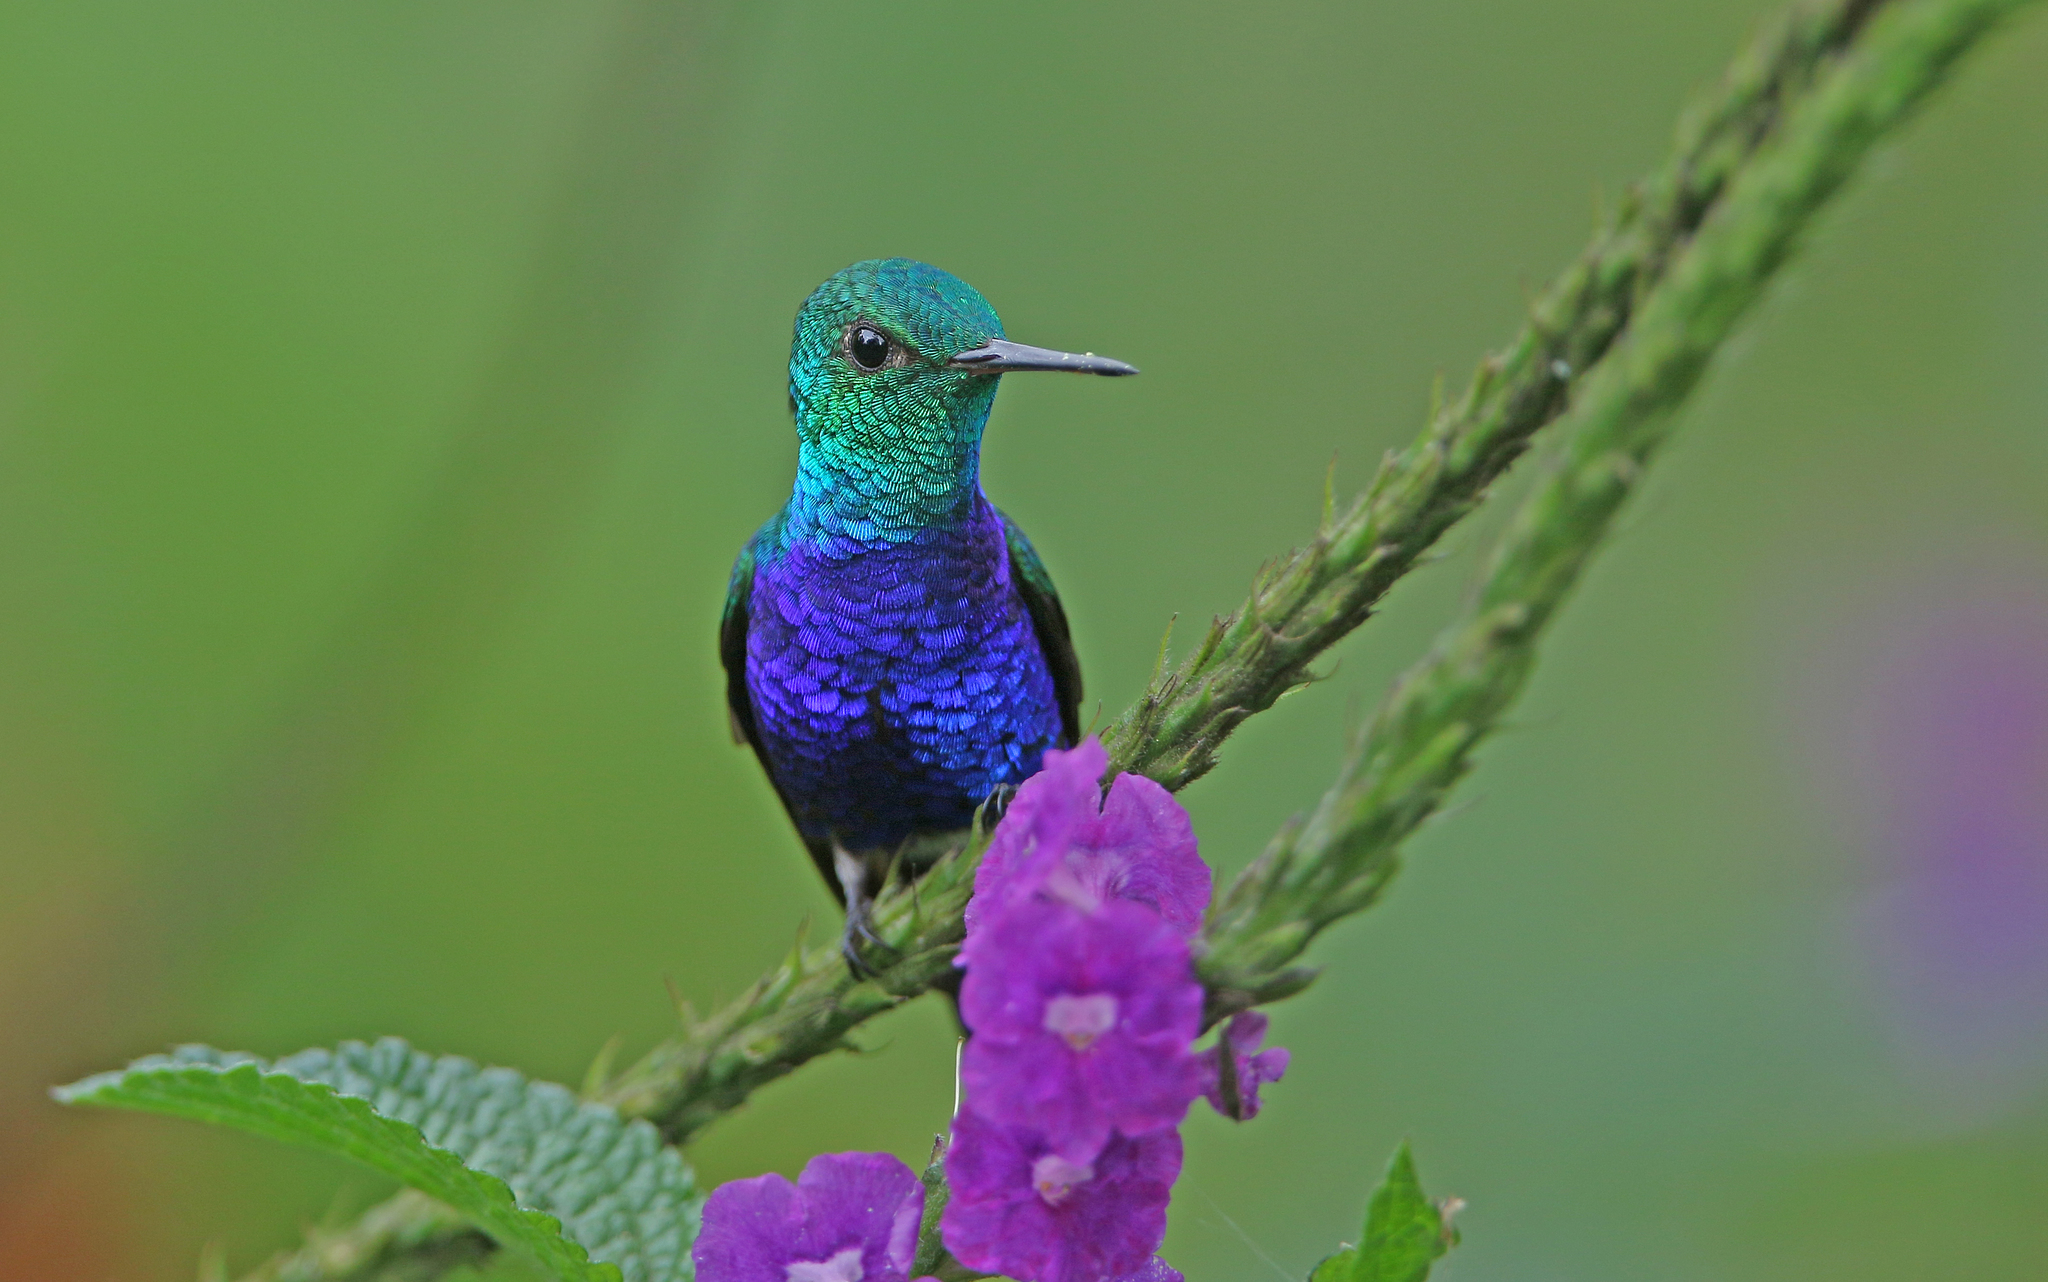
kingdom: Animalia
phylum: Chordata
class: Aves
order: Apodiformes
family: Trochilidae
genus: Chlorestes
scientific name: Chlorestes julie
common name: Violet-bellied hummingbird
